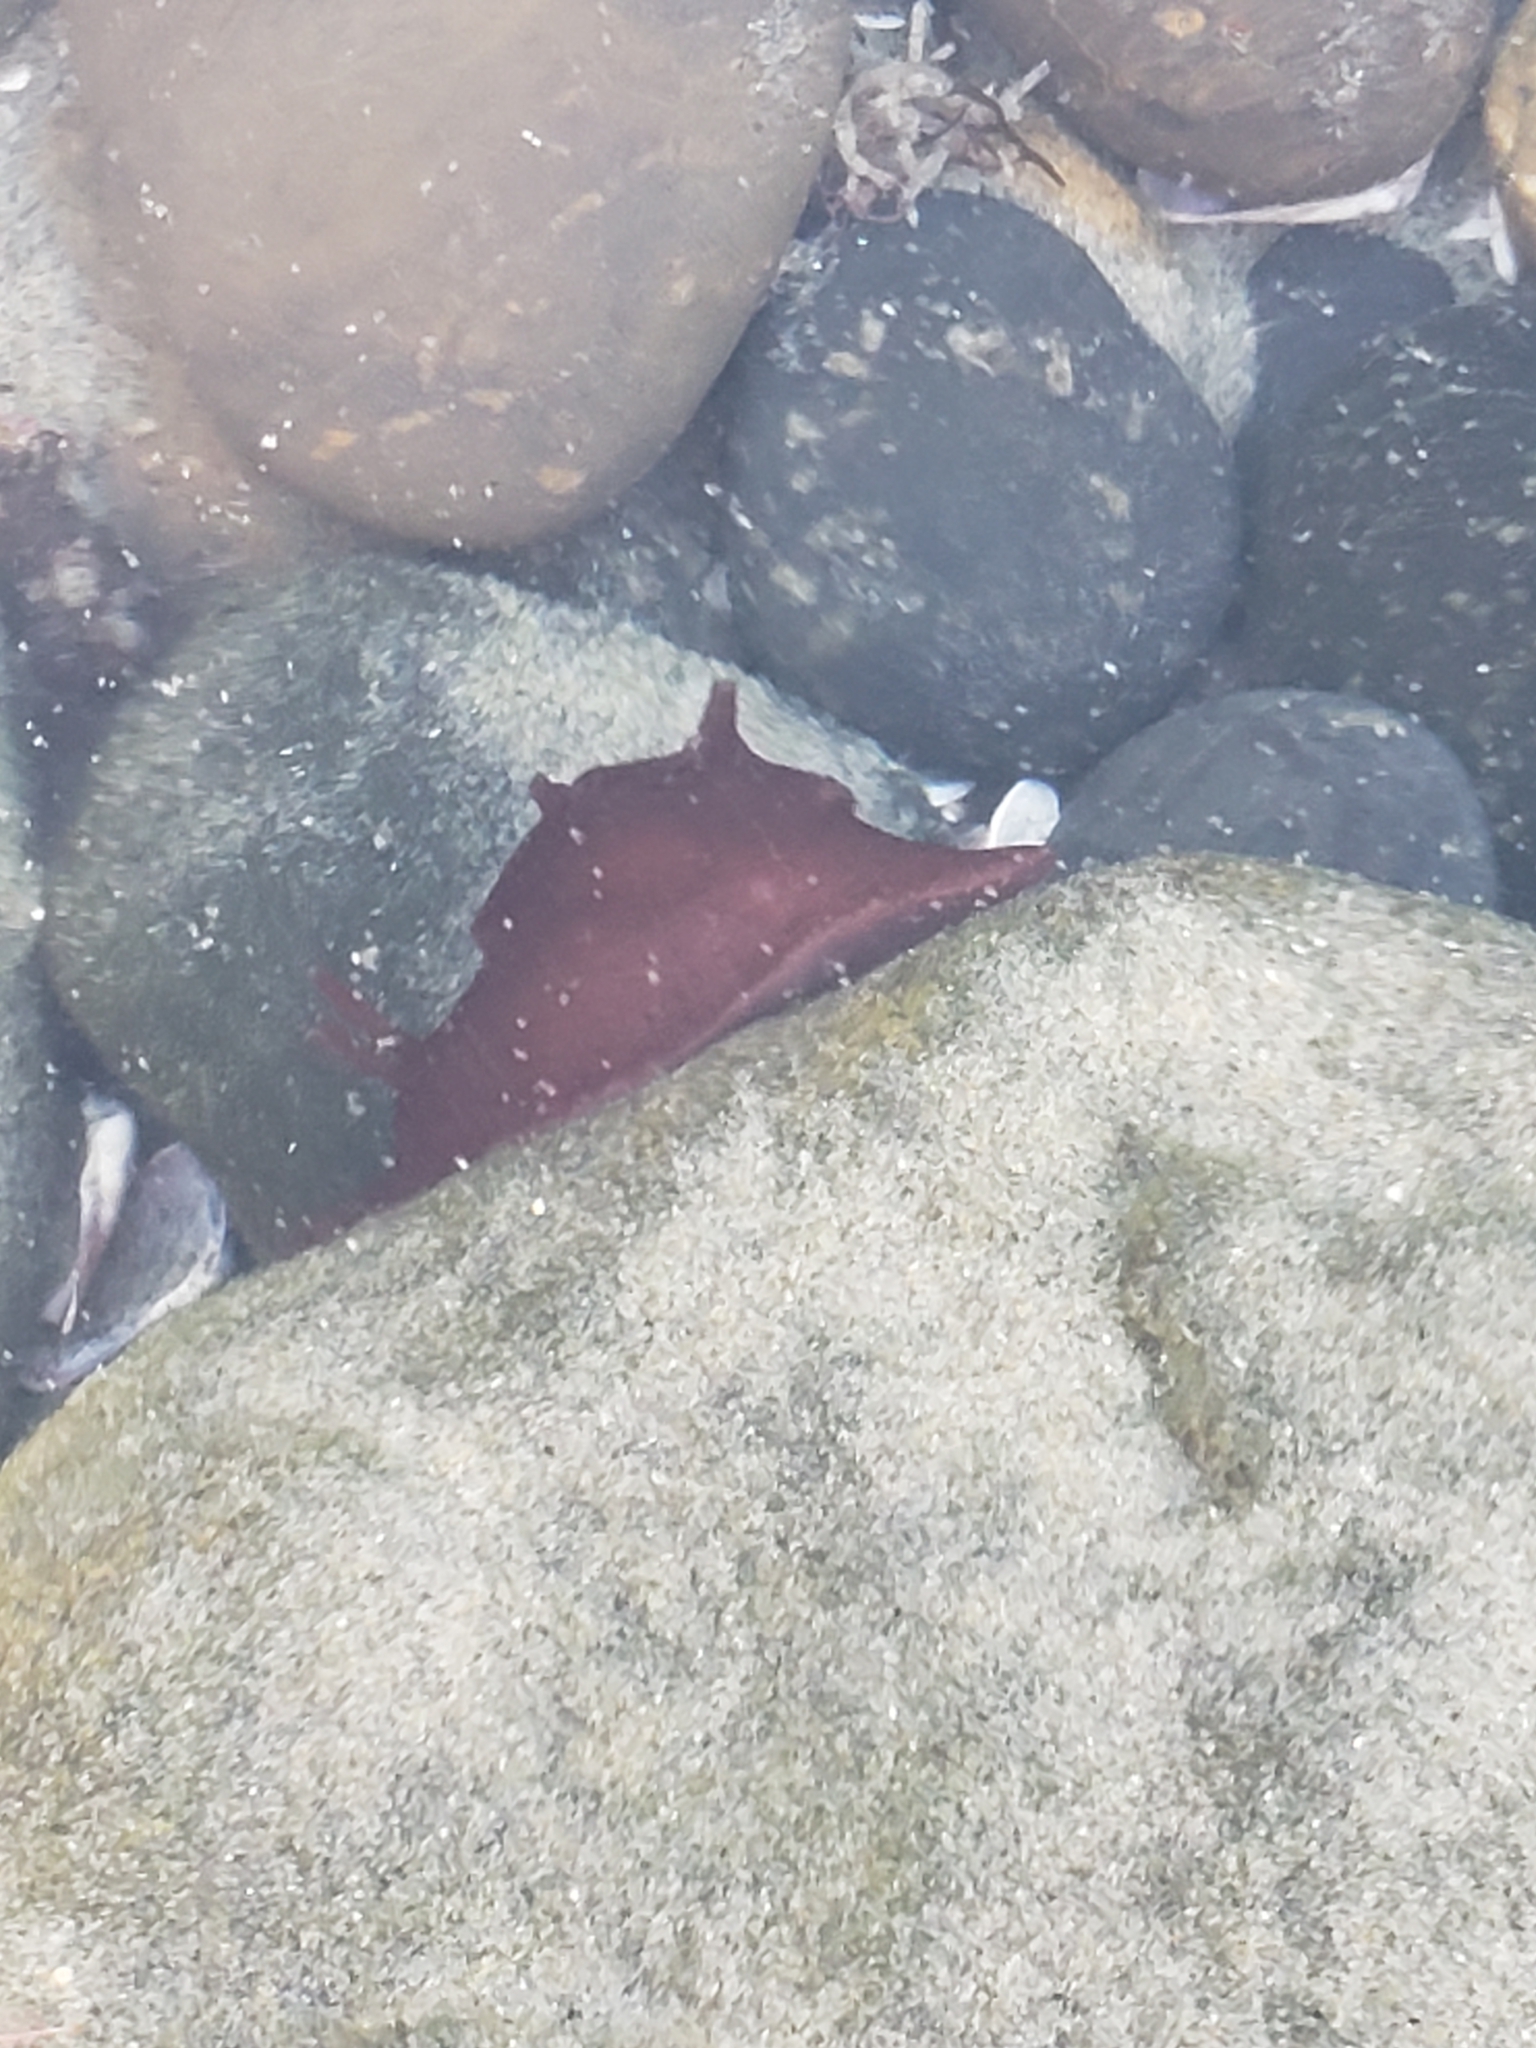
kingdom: Animalia
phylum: Mollusca
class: Gastropoda
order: Aplysiida
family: Aplysiidae
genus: Aplysia
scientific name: Aplysia californica
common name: California seahare
